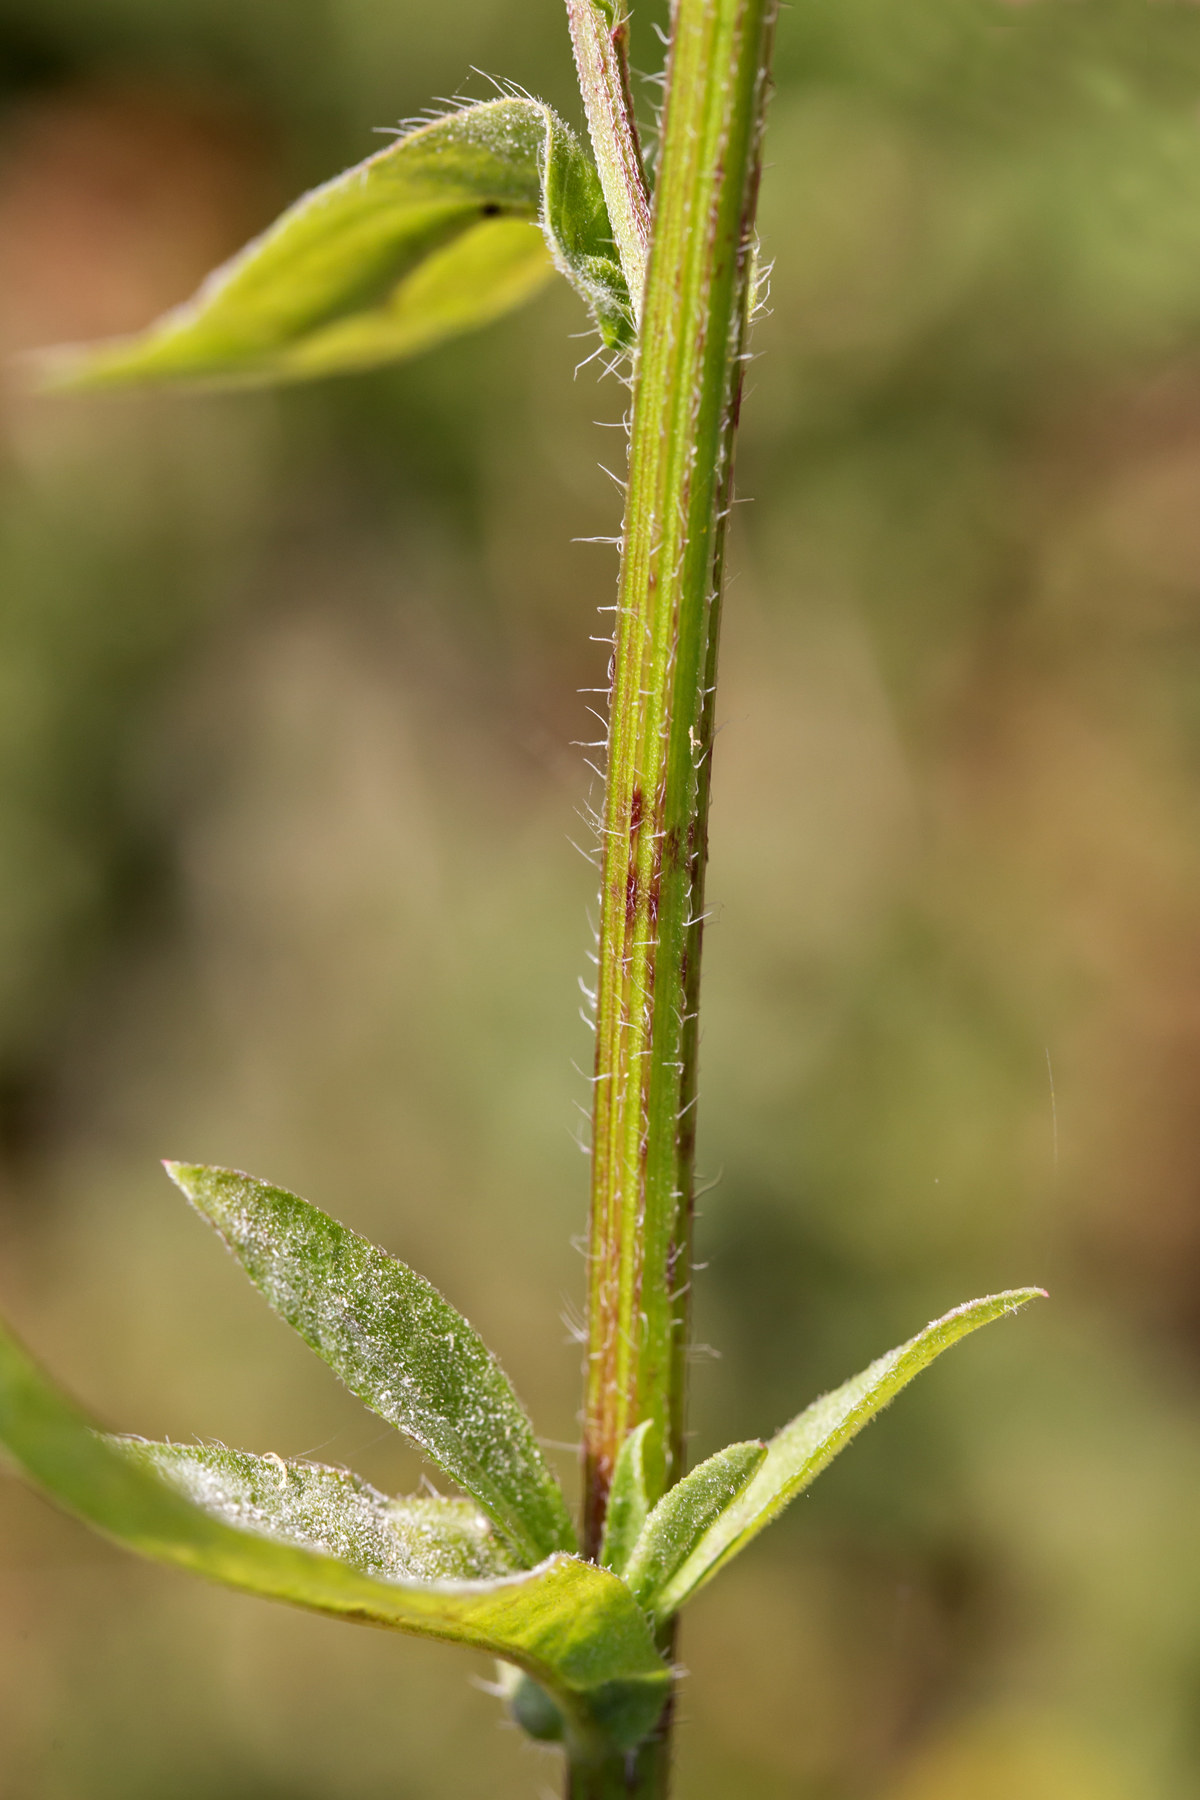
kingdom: Plantae
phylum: Tracheophyta
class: Magnoliopsida
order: Asterales
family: Asteraceae
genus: Erigeron
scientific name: Erigeron annuus
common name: Tall fleabane
